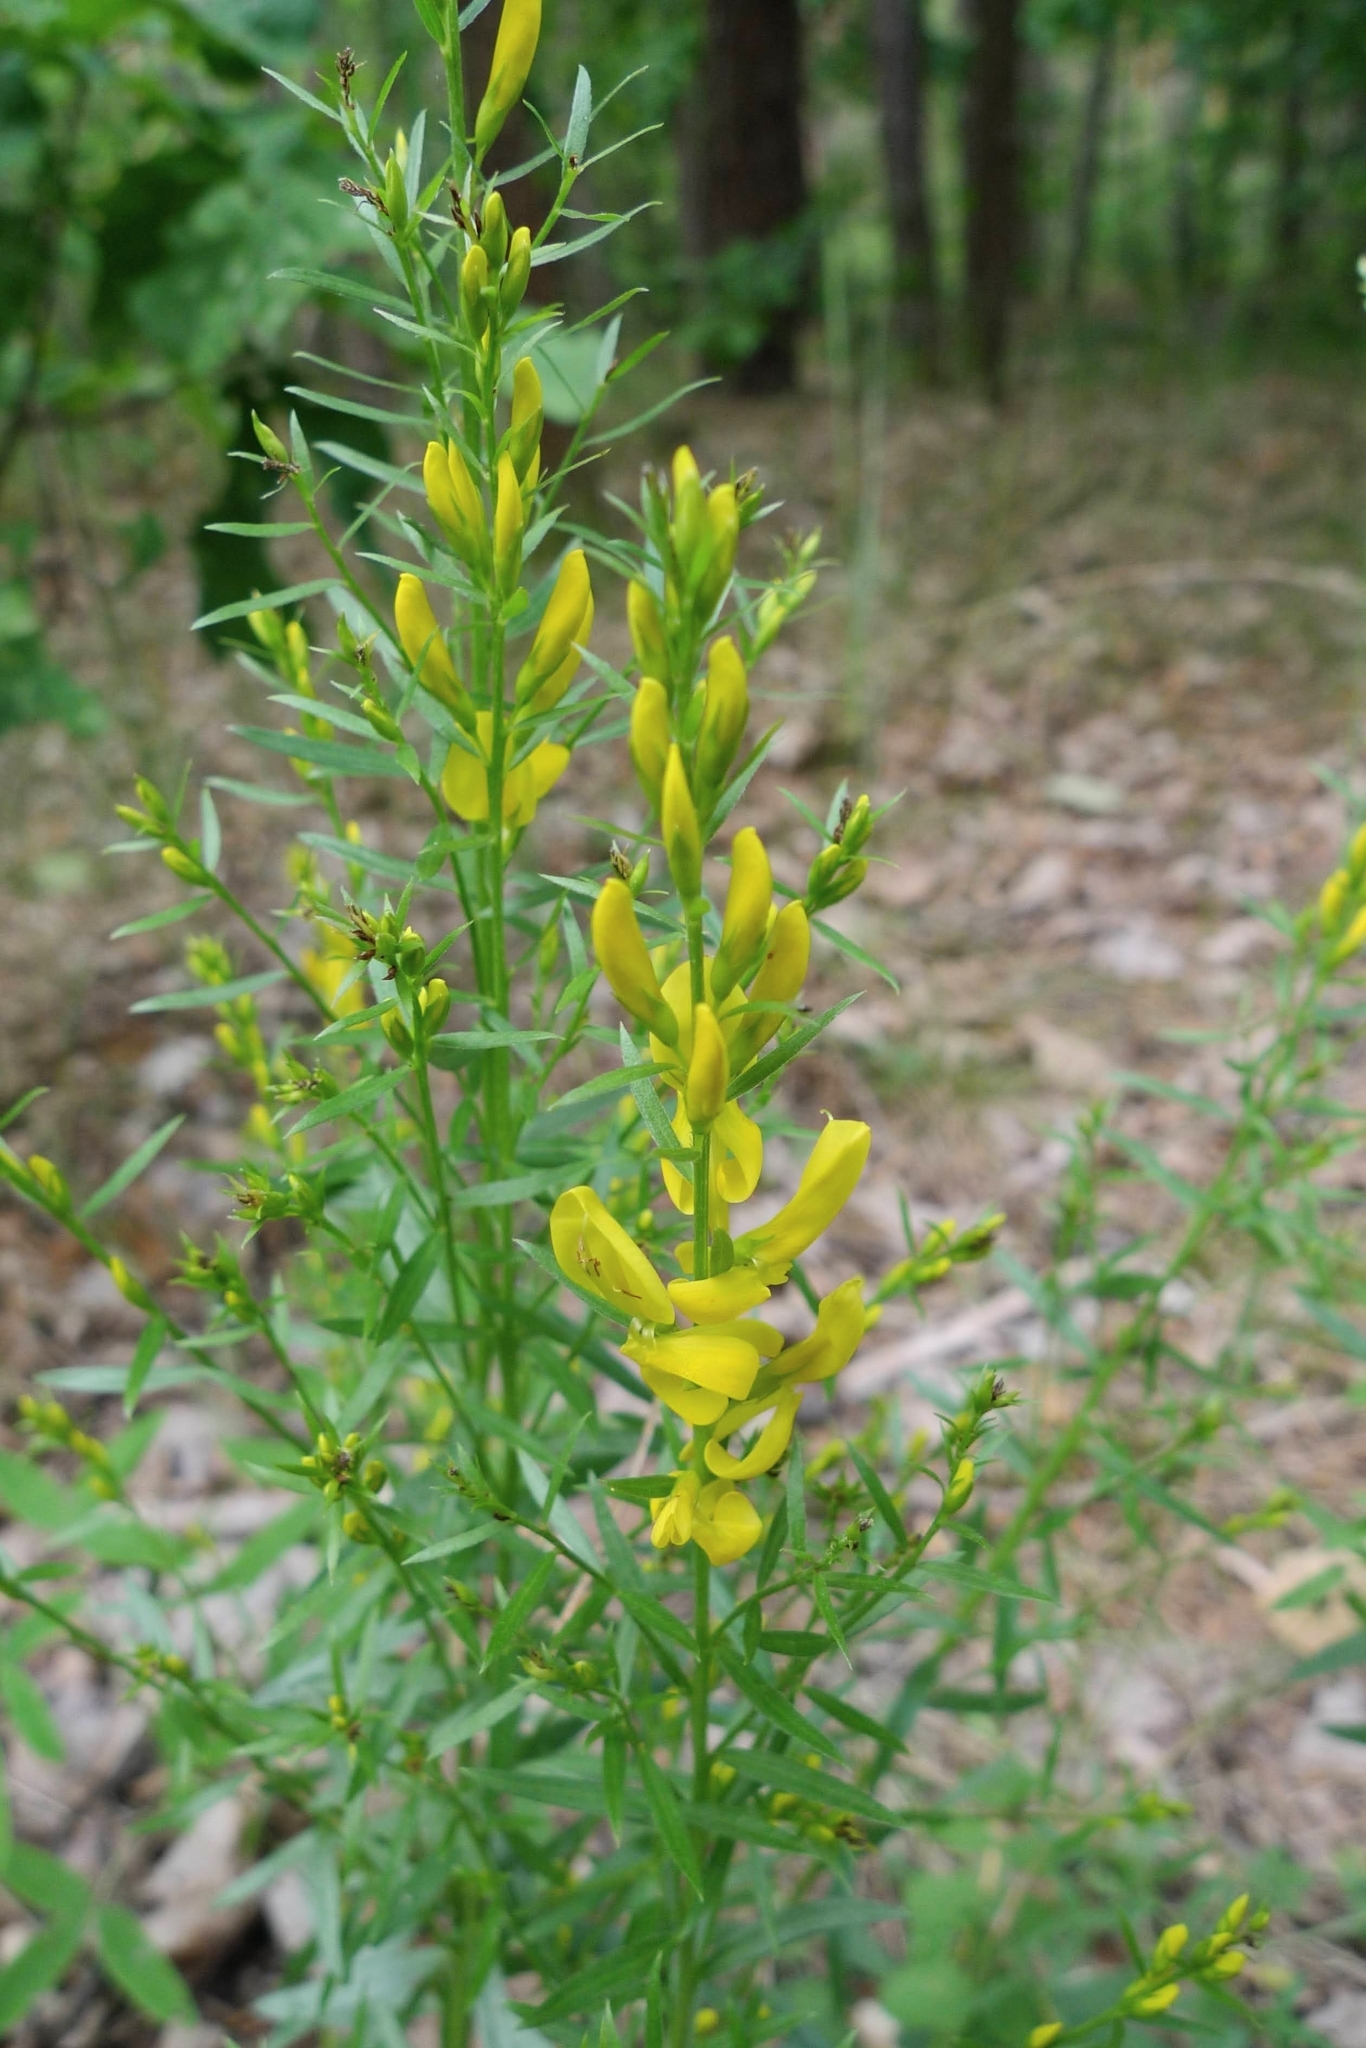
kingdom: Plantae
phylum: Tracheophyta
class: Magnoliopsida
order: Fabales
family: Fabaceae
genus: Genista
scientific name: Genista tinctoria
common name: Dyer's greenweed
